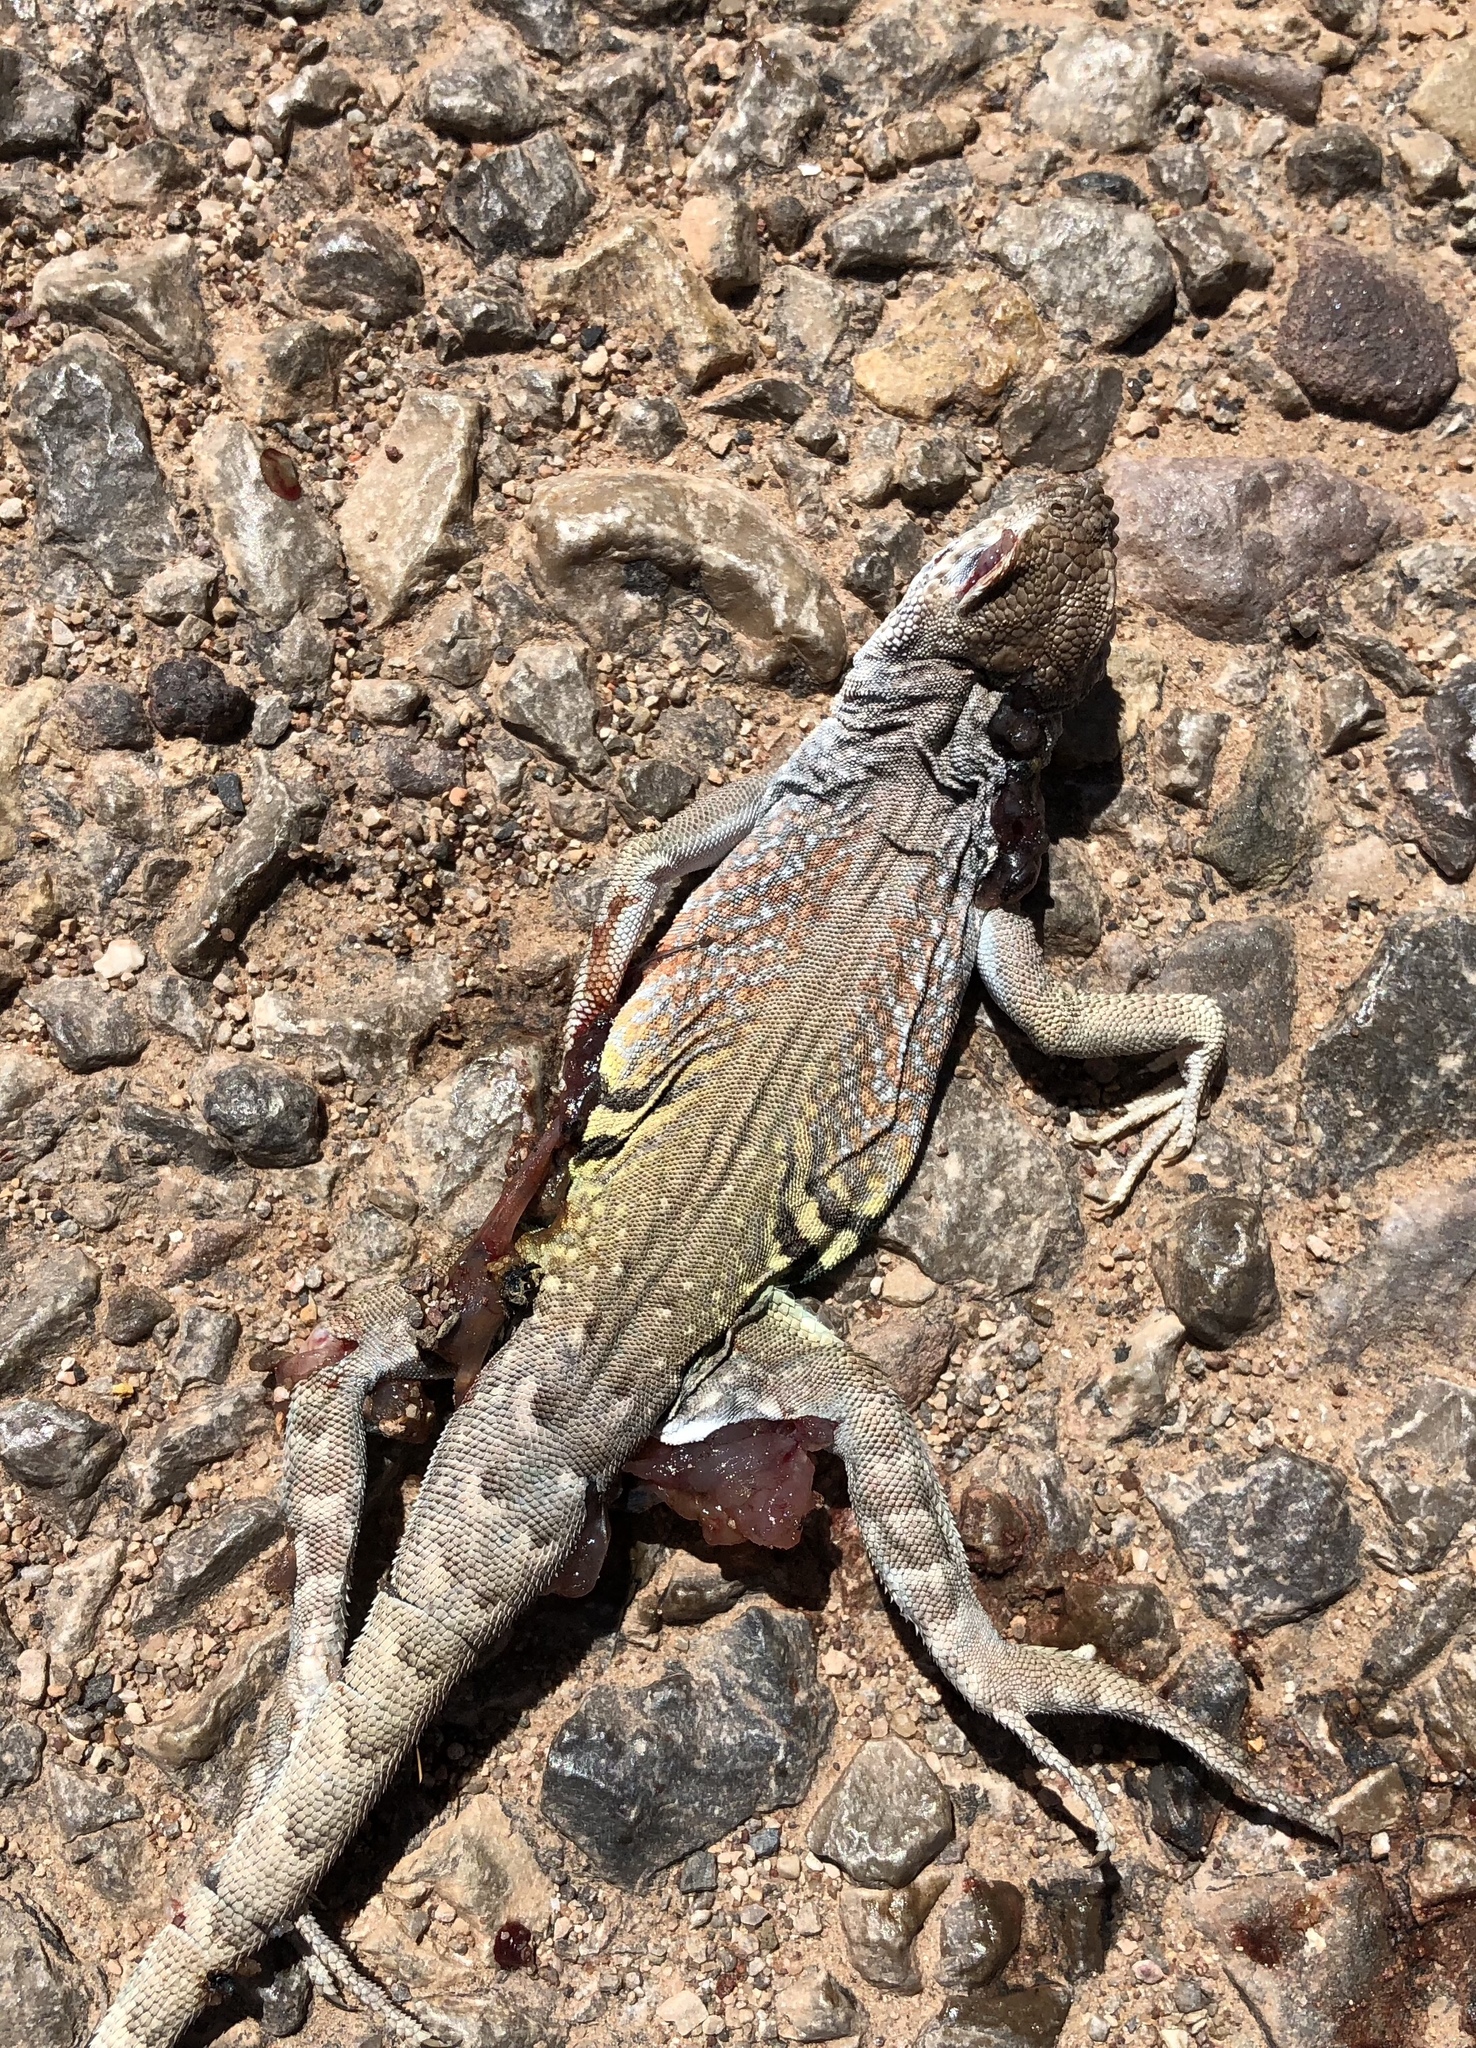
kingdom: Animalia
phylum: Chordata
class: Squamata
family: Phrynosomatidae
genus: Cophosaurus
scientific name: Cophosaurus texanus
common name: Greater earless lizard
